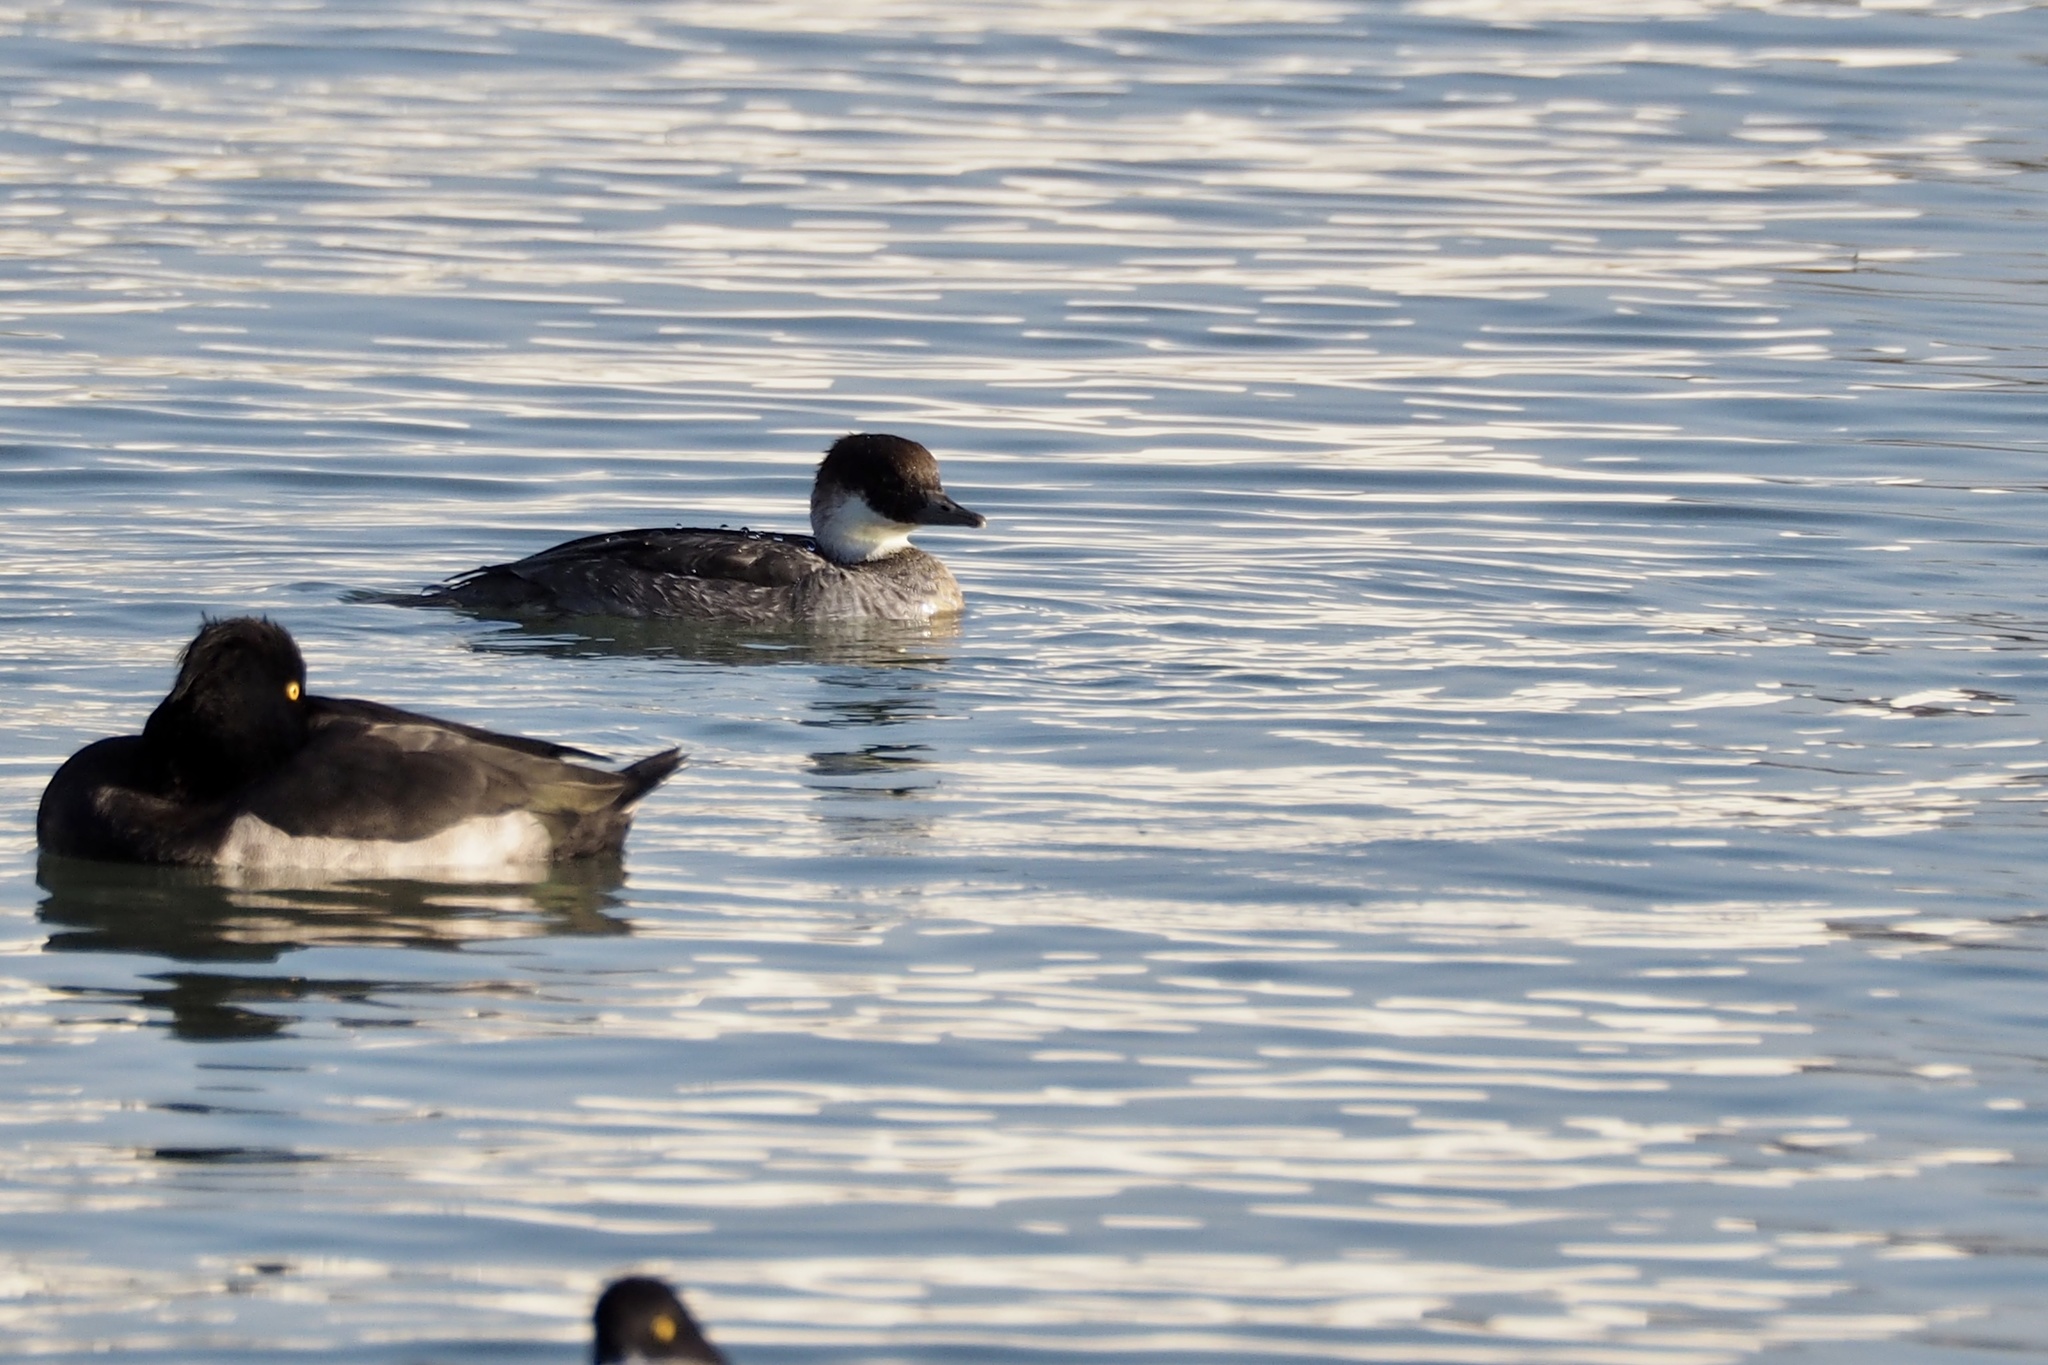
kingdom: Animalia
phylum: Chordata
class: Aves
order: Anseriformes
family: Anatidae
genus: Mergellus
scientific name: Mergellus albellus
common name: Smew
